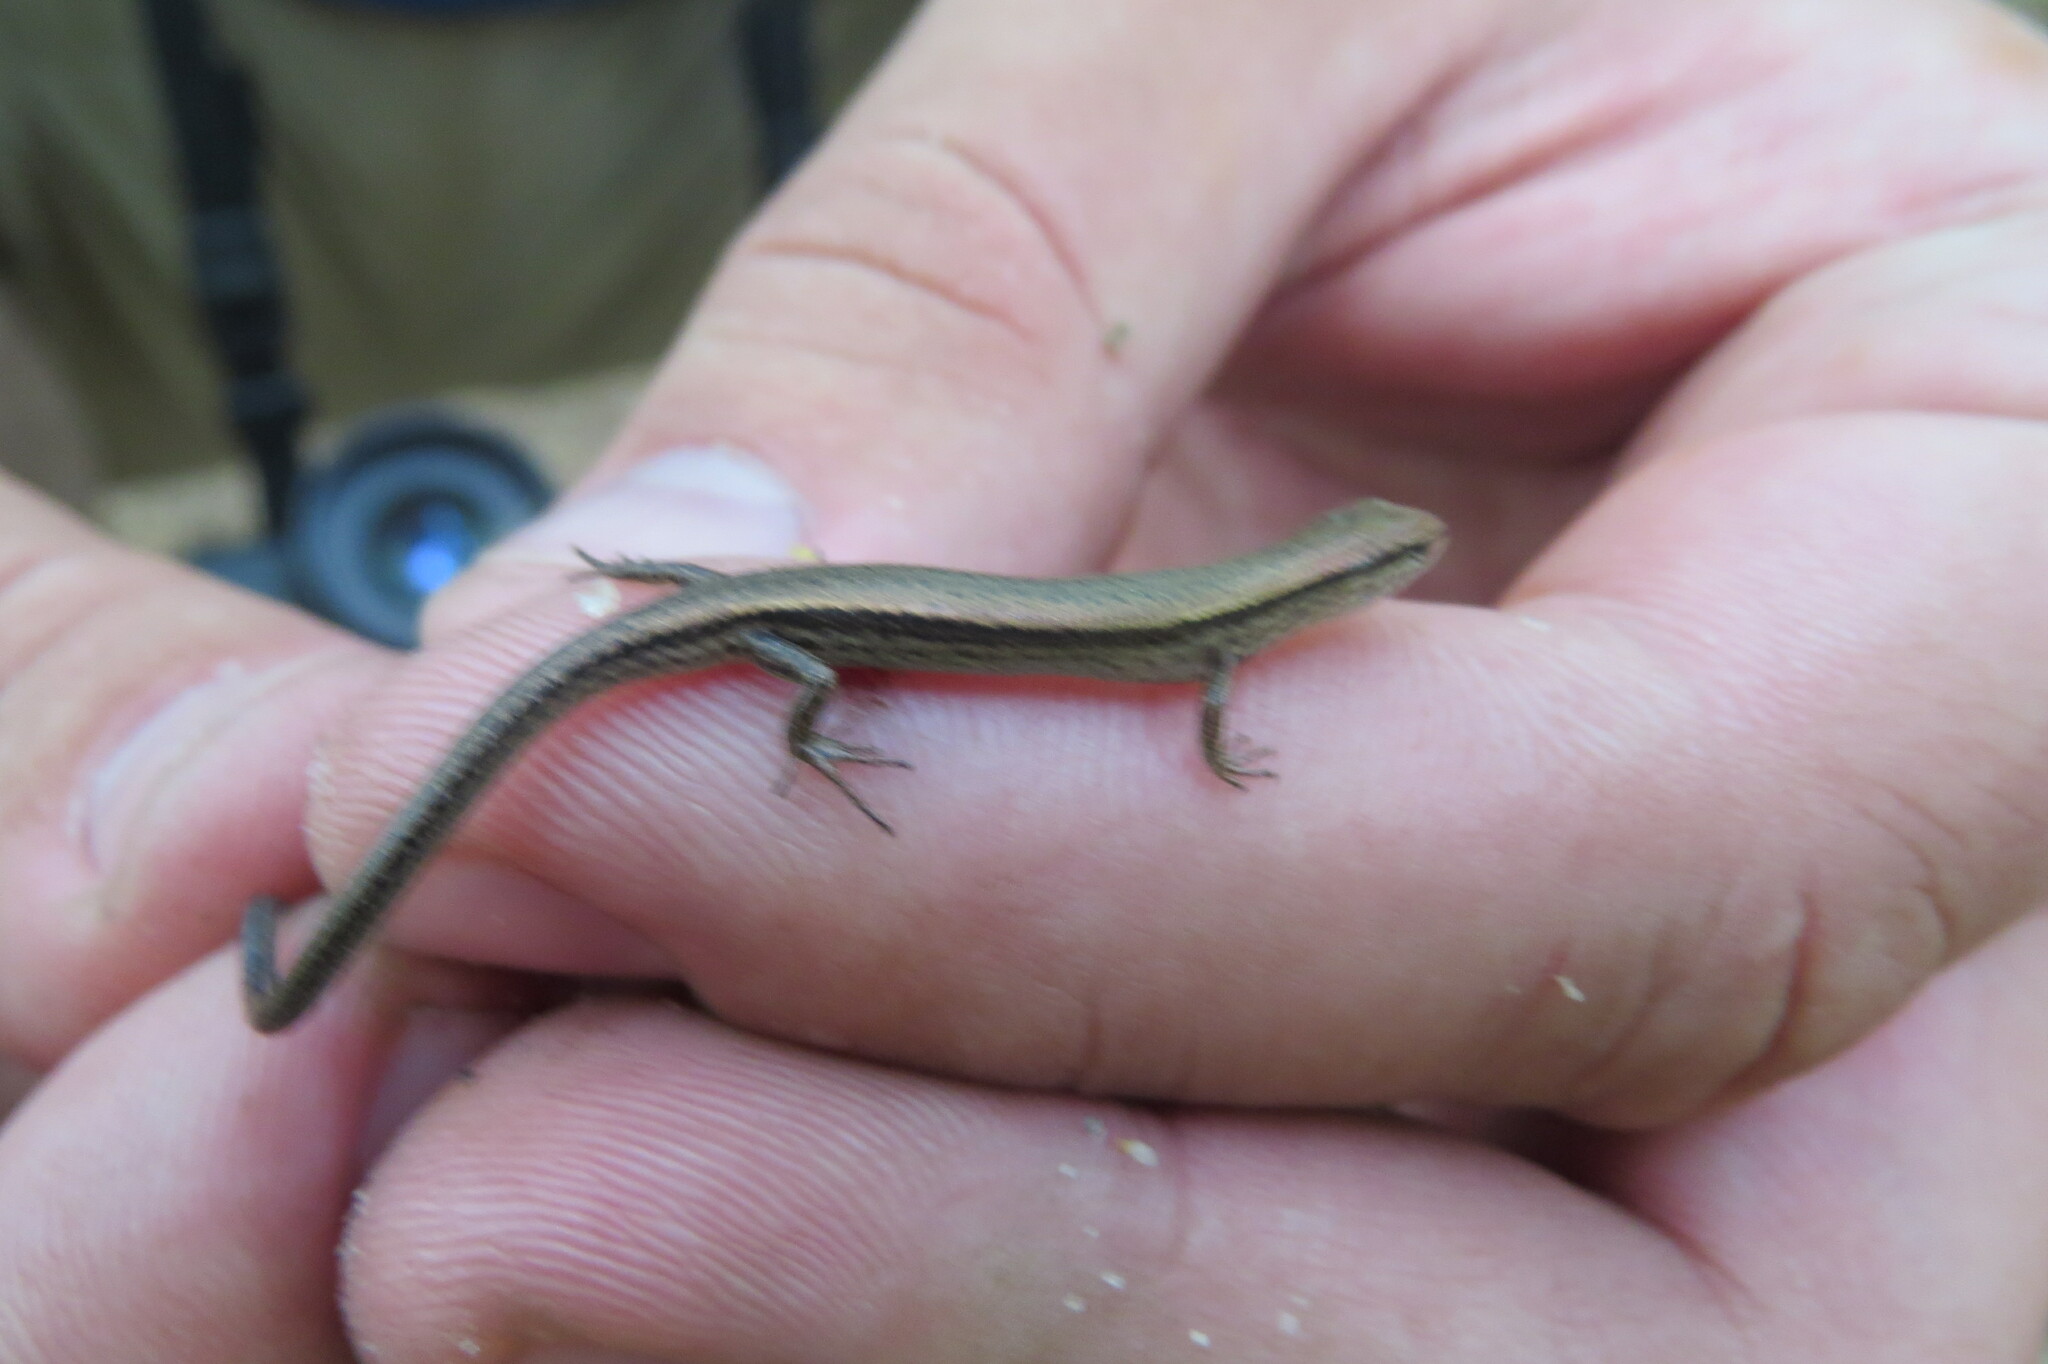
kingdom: Animalia
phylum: Chordata
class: Squamata
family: Scincidae
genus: Scincella
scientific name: Scincella lateralis
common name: Ground skink
